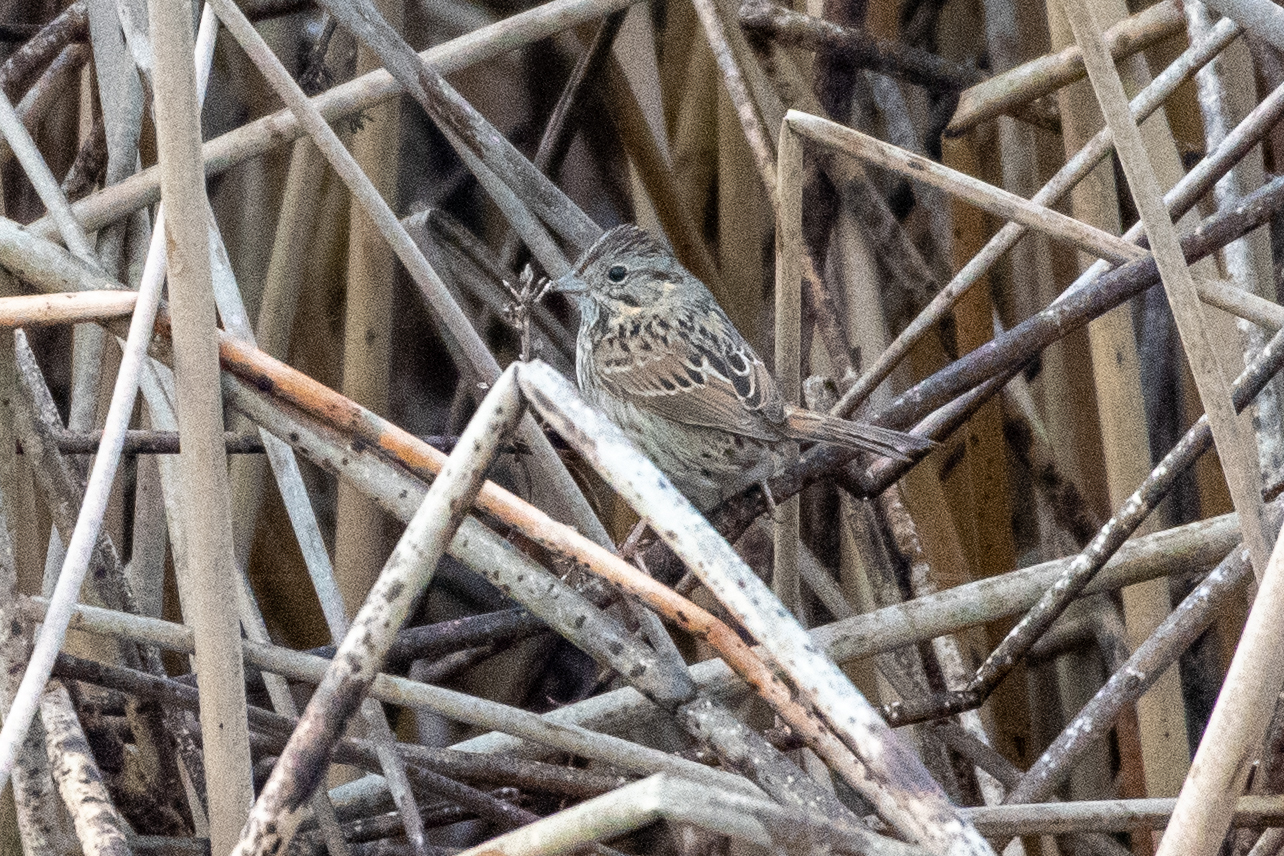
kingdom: Animalia
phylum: Chordata
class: Aves
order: Passeriformes
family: Passerellidae
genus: Melospiza
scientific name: Melospiza lincolnii
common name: Lincoln's sparrow
